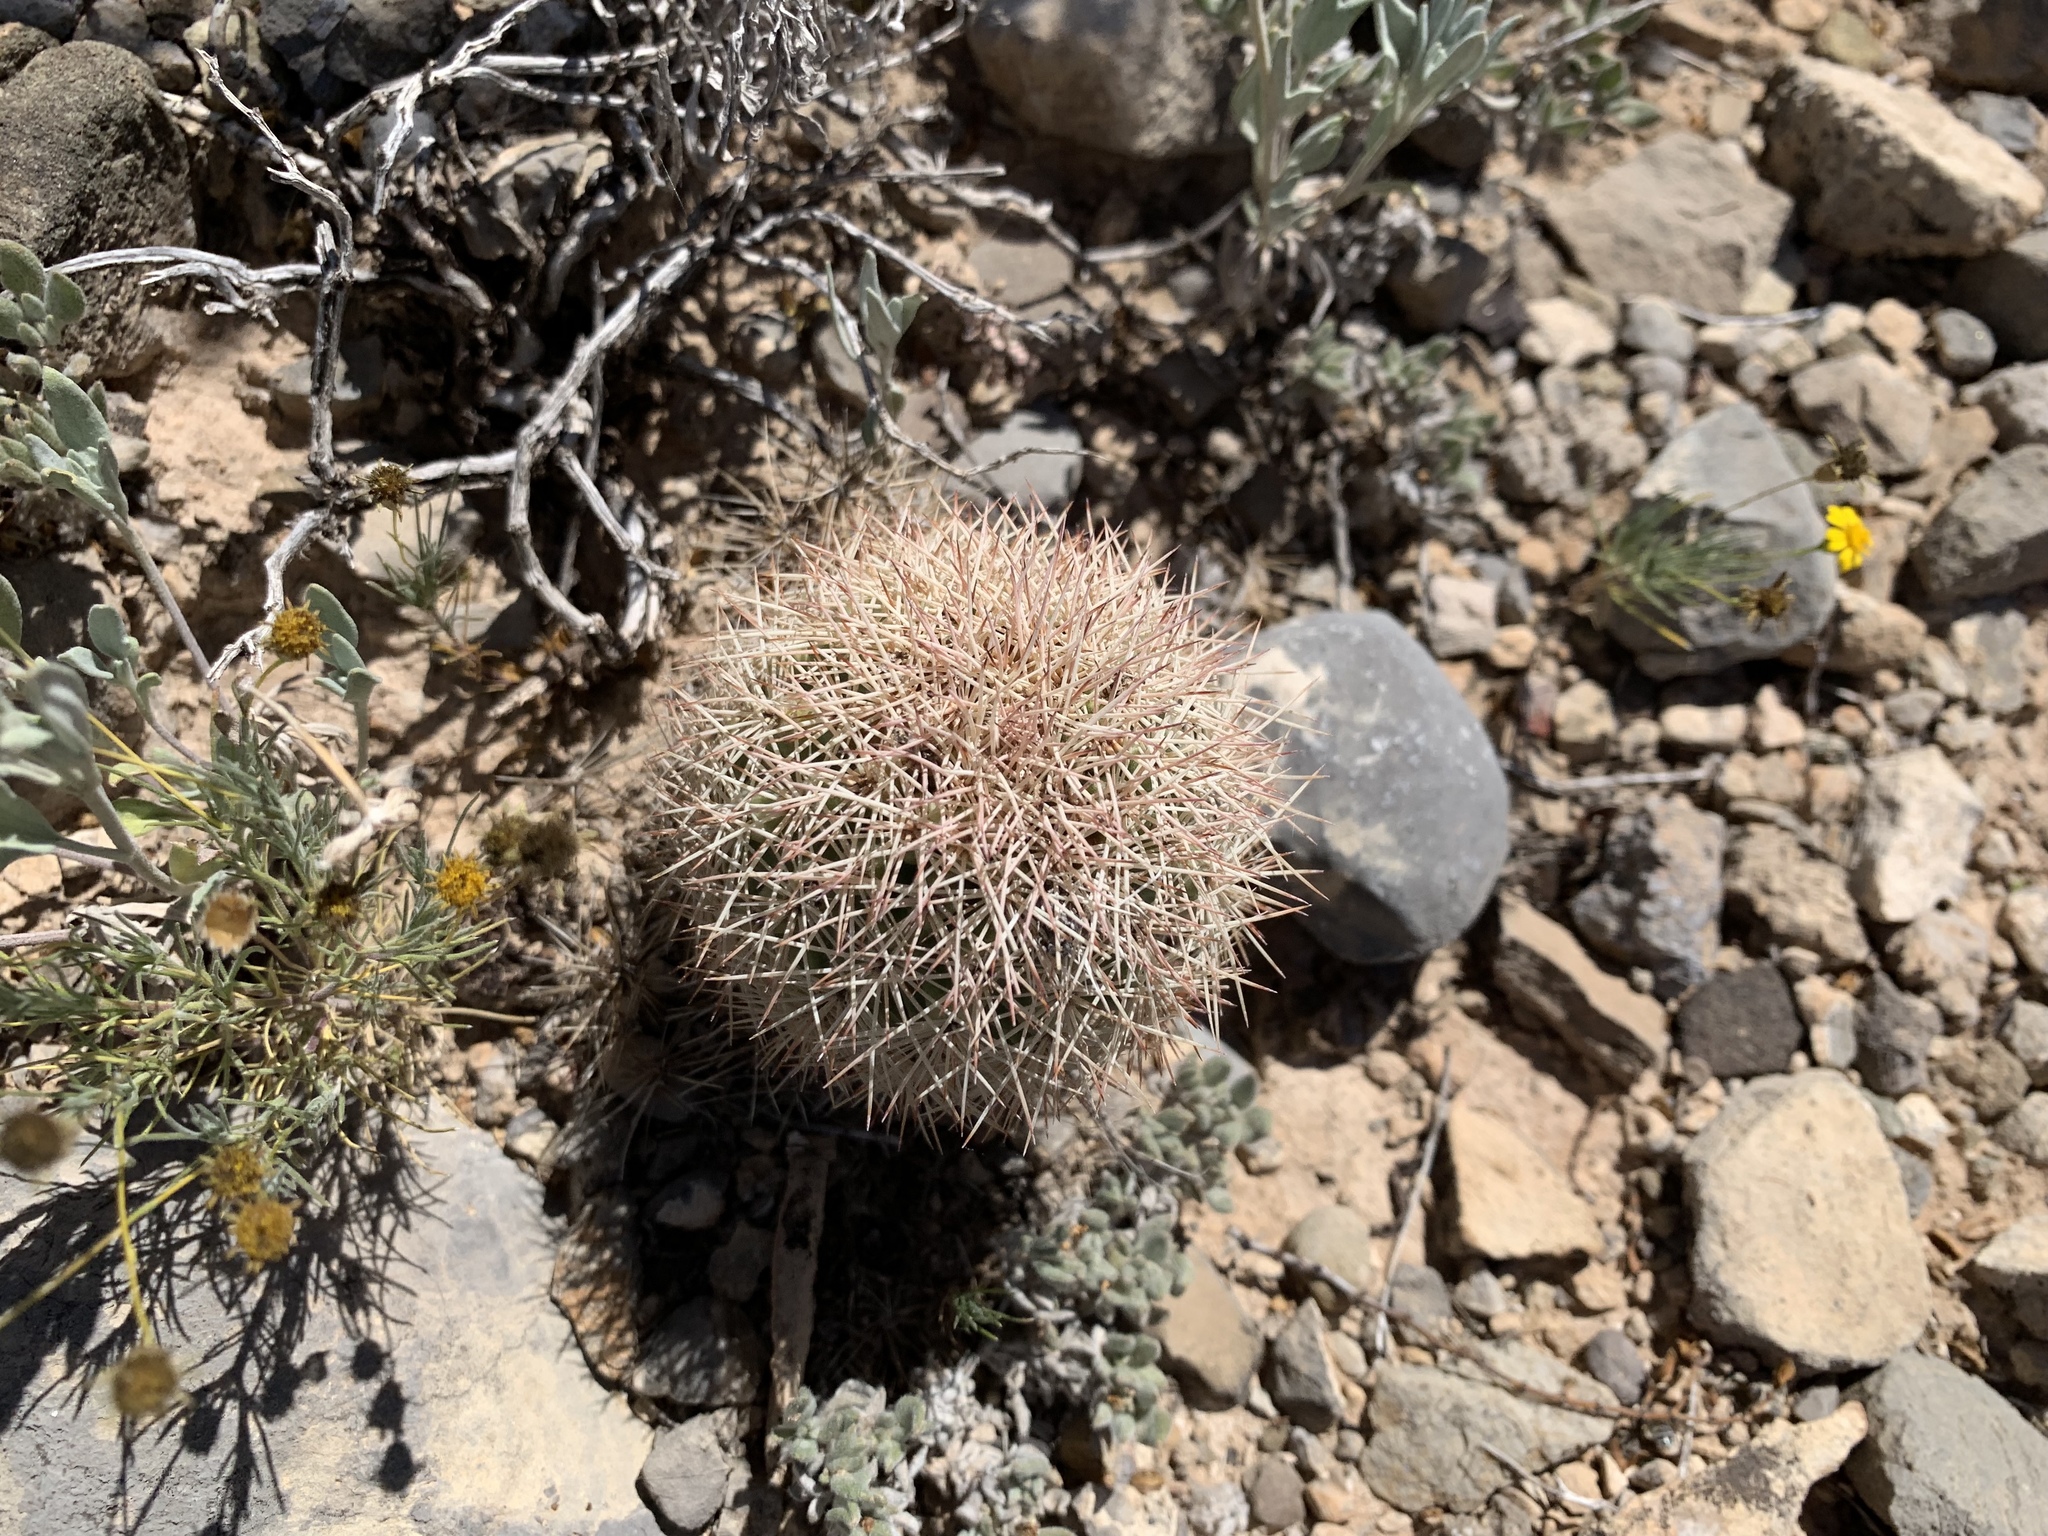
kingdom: Plantae
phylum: Tracheophyta
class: Magnoliopsida
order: Caryophyllales
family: Cactaceae
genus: Echinocereus
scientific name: Echinocereus dasyacanthus
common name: Spiny hedgehog cactus
